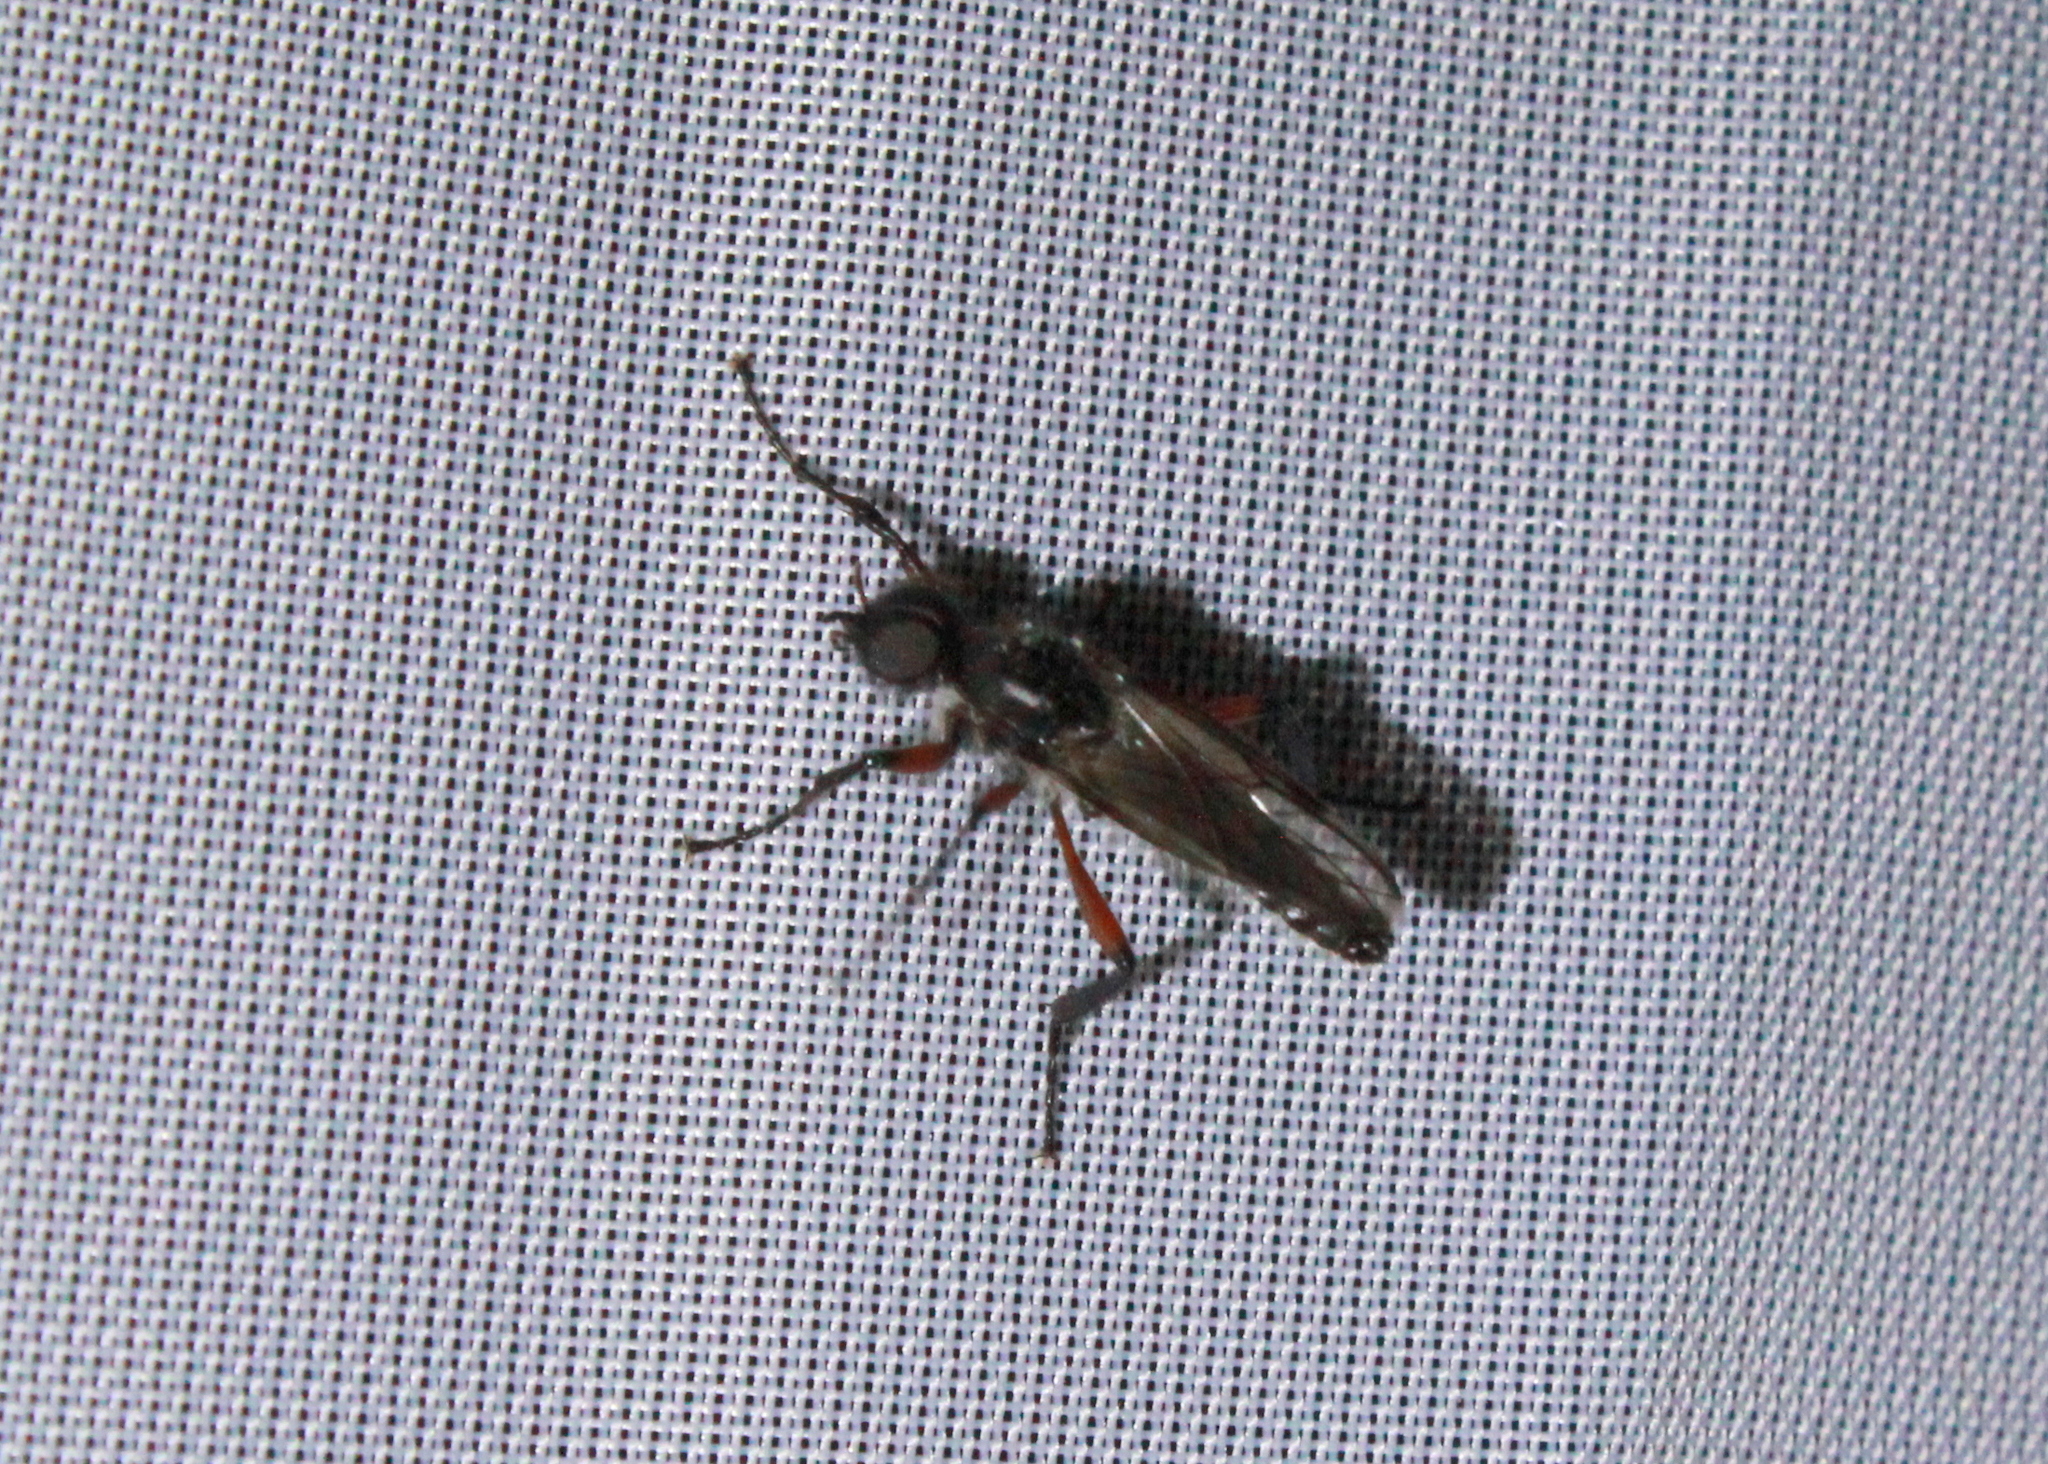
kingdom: Animalia
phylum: Arthropoda
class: Insecta
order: Diptera
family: Bibionidae
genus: Bibio
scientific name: Bibio femoratus
